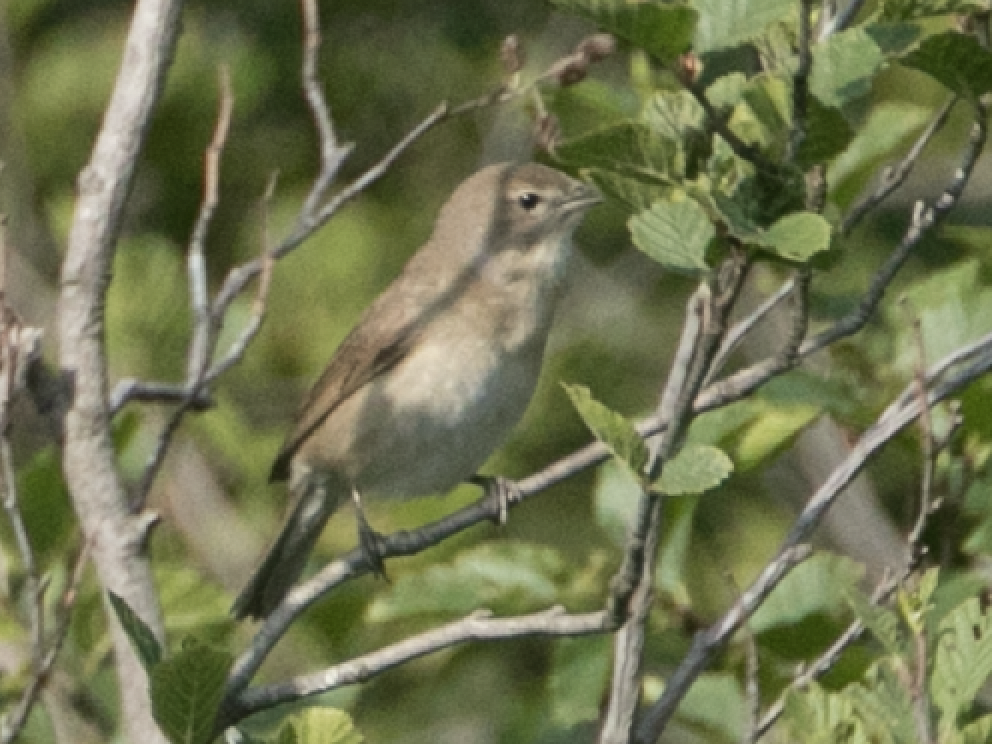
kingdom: Animalia
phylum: Chordata
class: Aves
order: Passeriformes
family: Sylviidae
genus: Sylvia
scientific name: Sylvia borin
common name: Garden warbler
